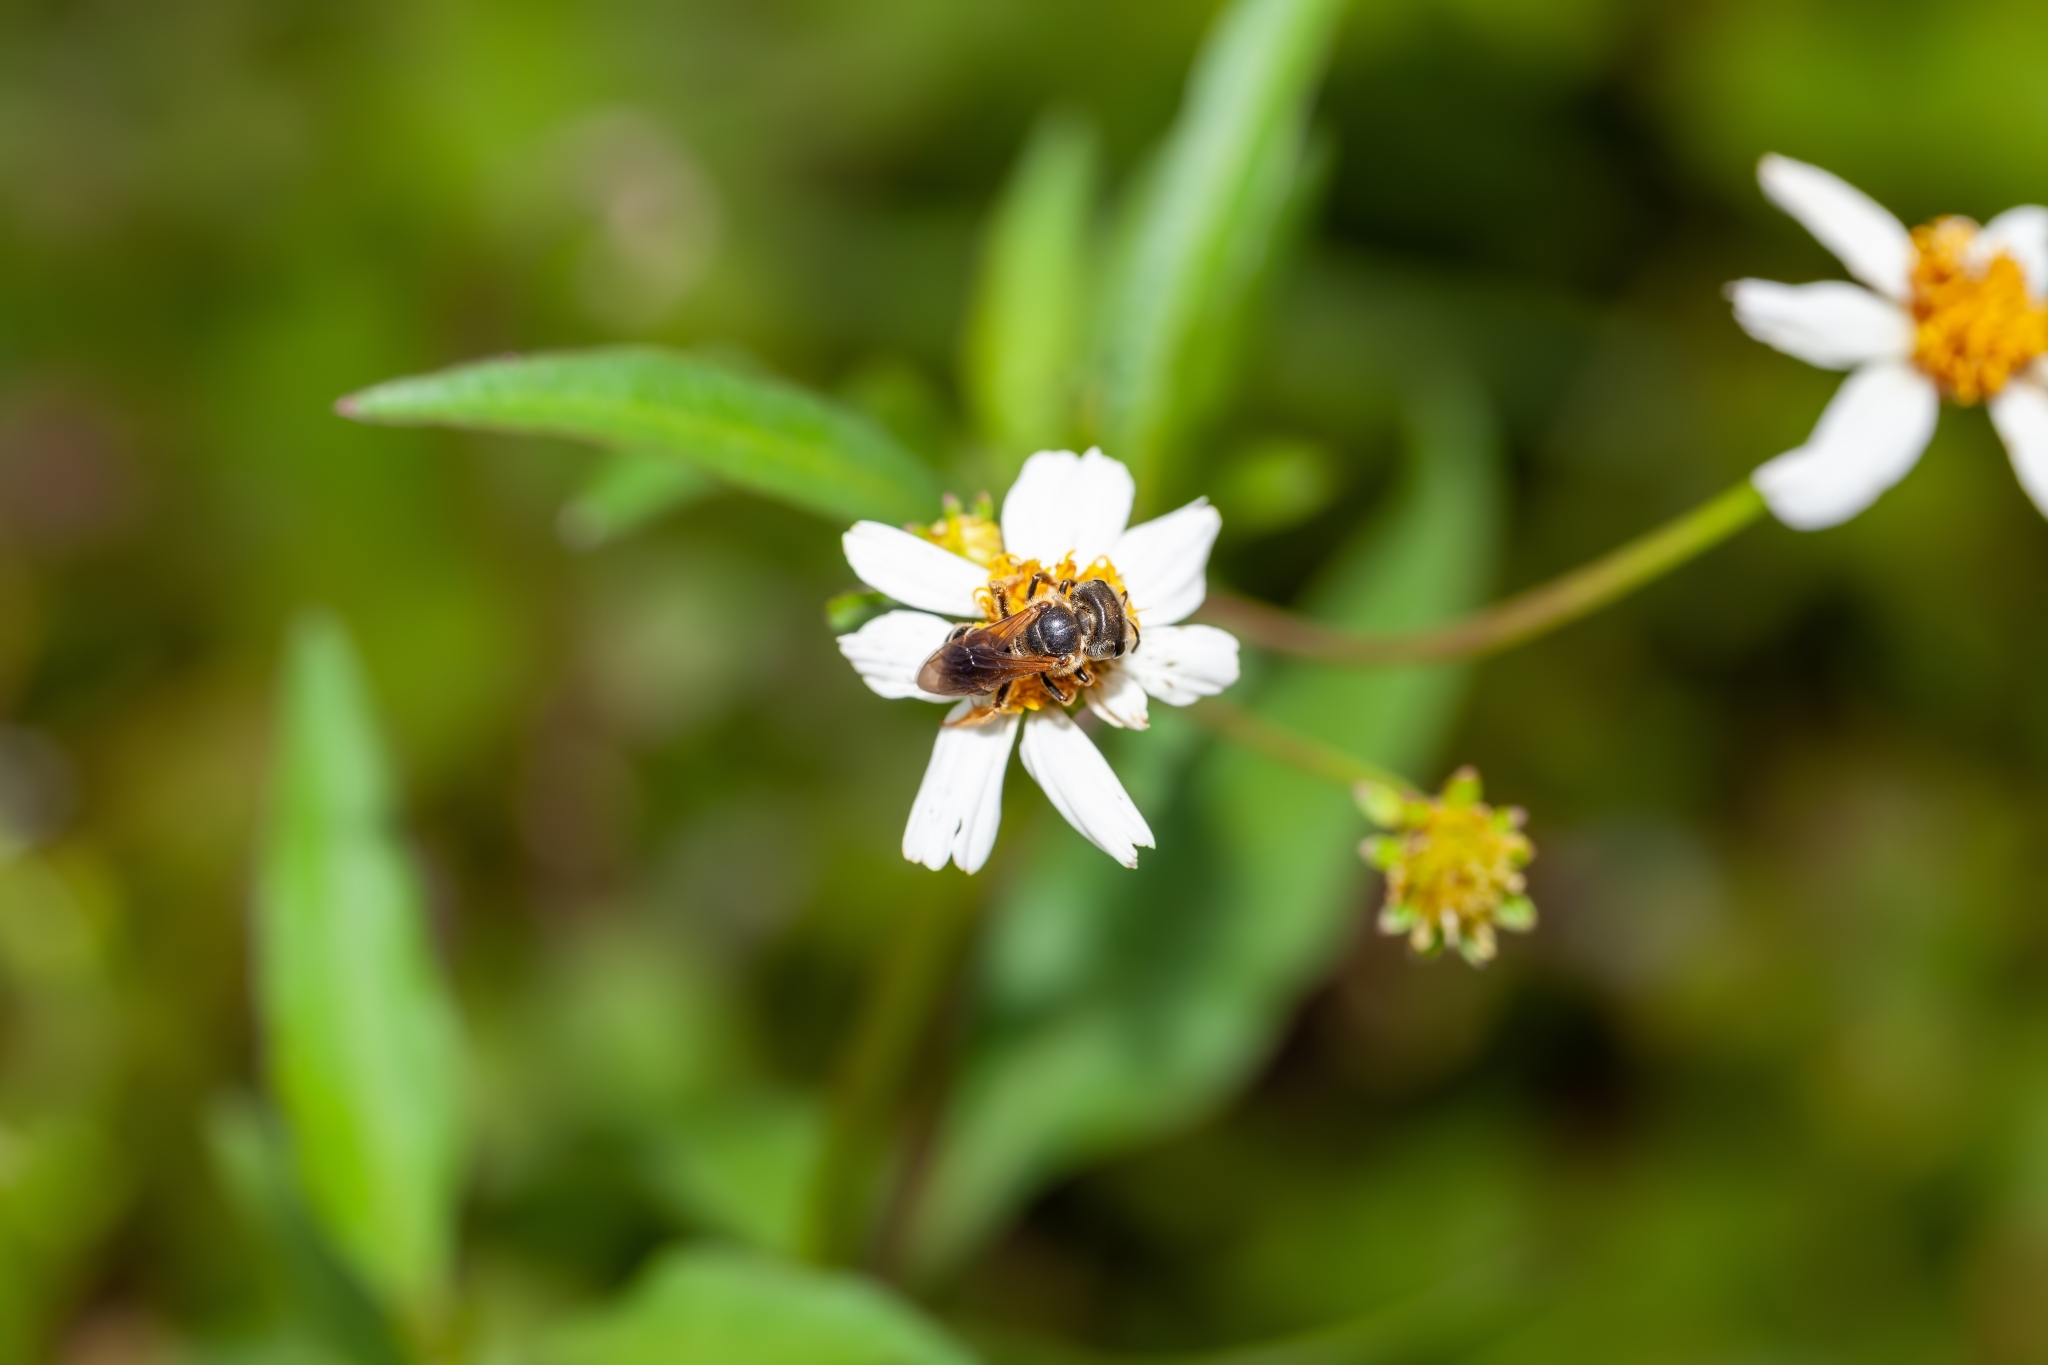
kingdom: Animalia
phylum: Arthropoda
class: Insecta
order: Hymenoptera
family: Halictidae
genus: Halictus
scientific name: Halictus poeyi
